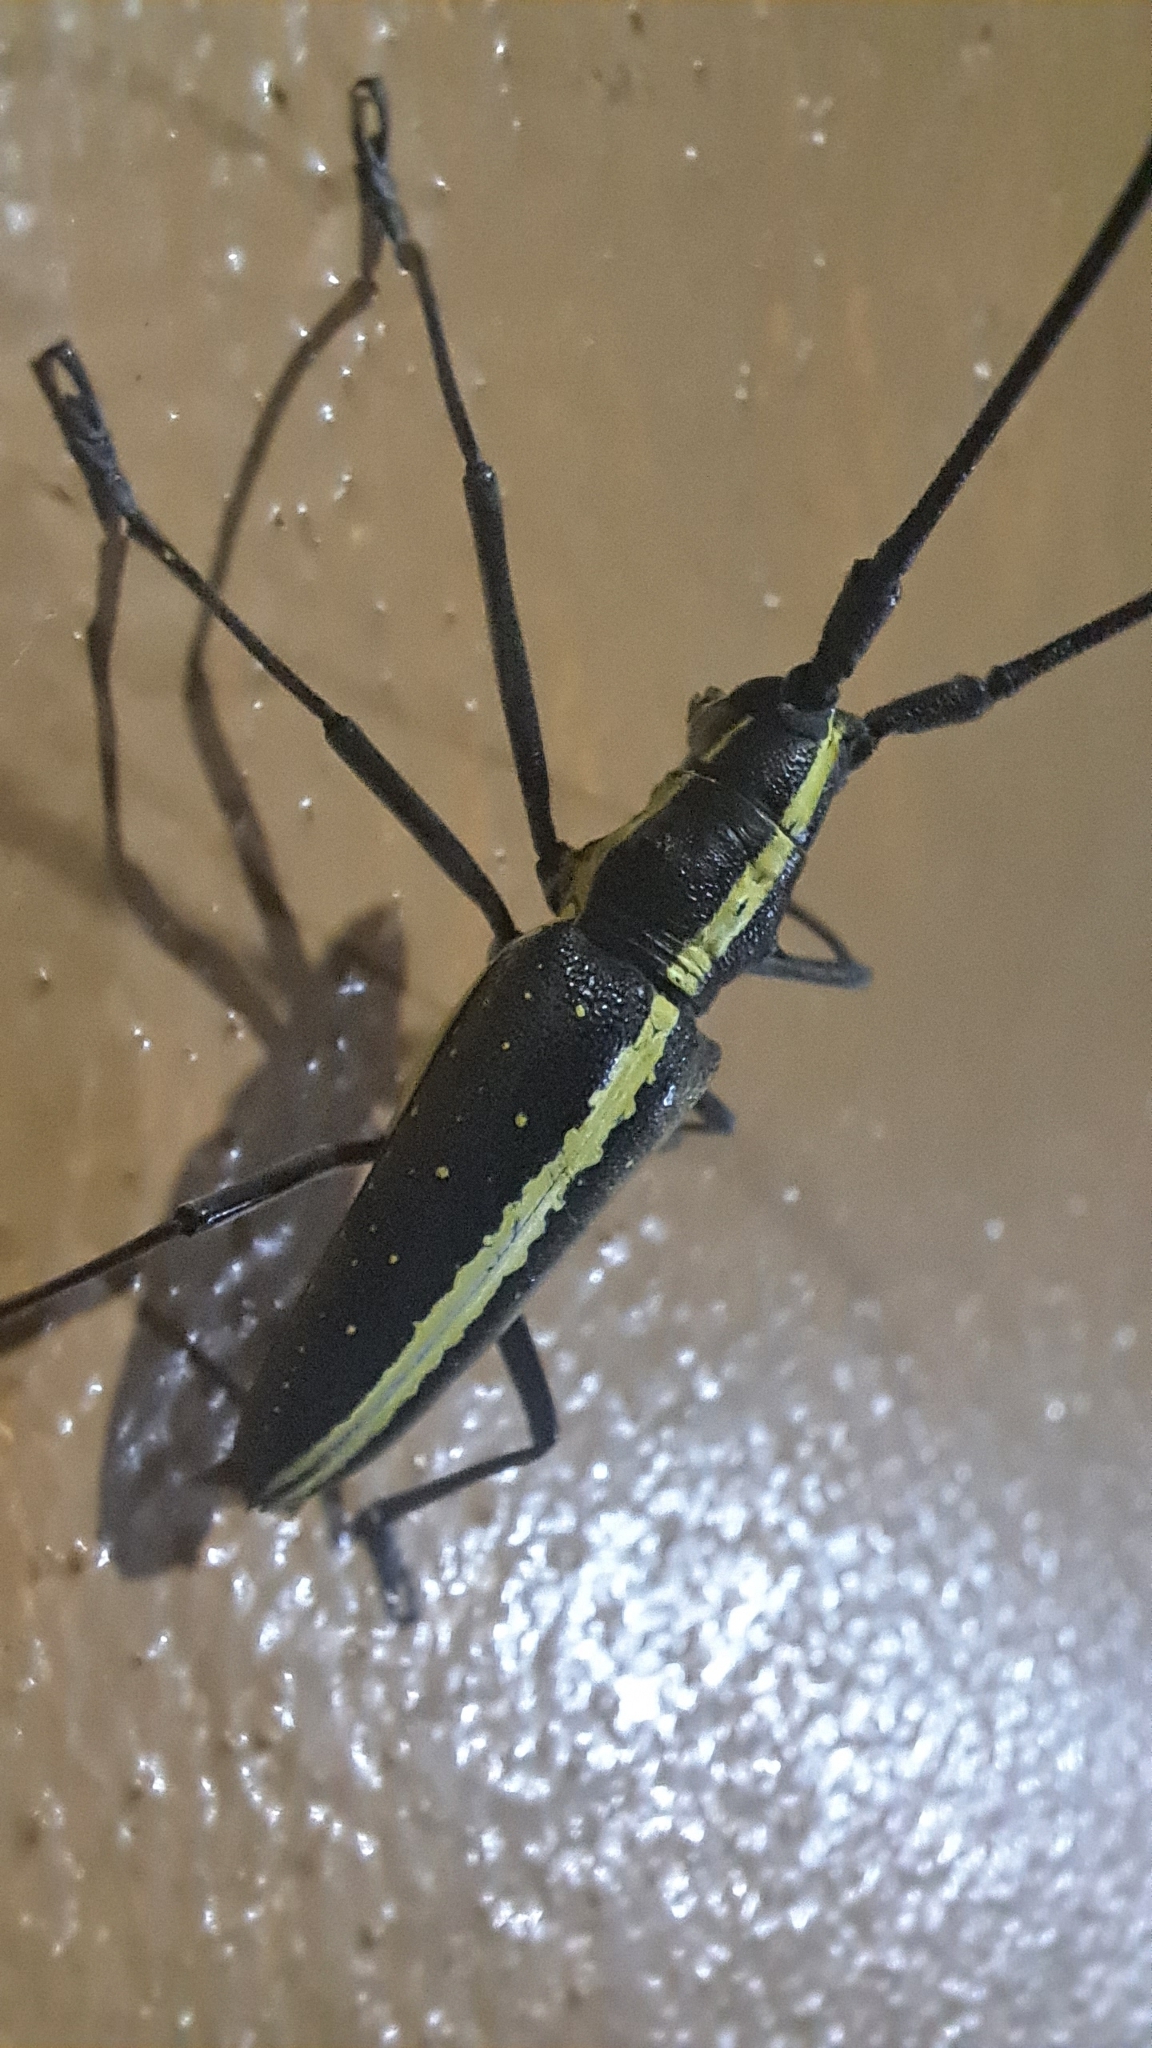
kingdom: Animalia
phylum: Arthropoda
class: Insecta
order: Coleoptera
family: Cerambycidae
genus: Taeniotes
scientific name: Taeniotes scalatus
